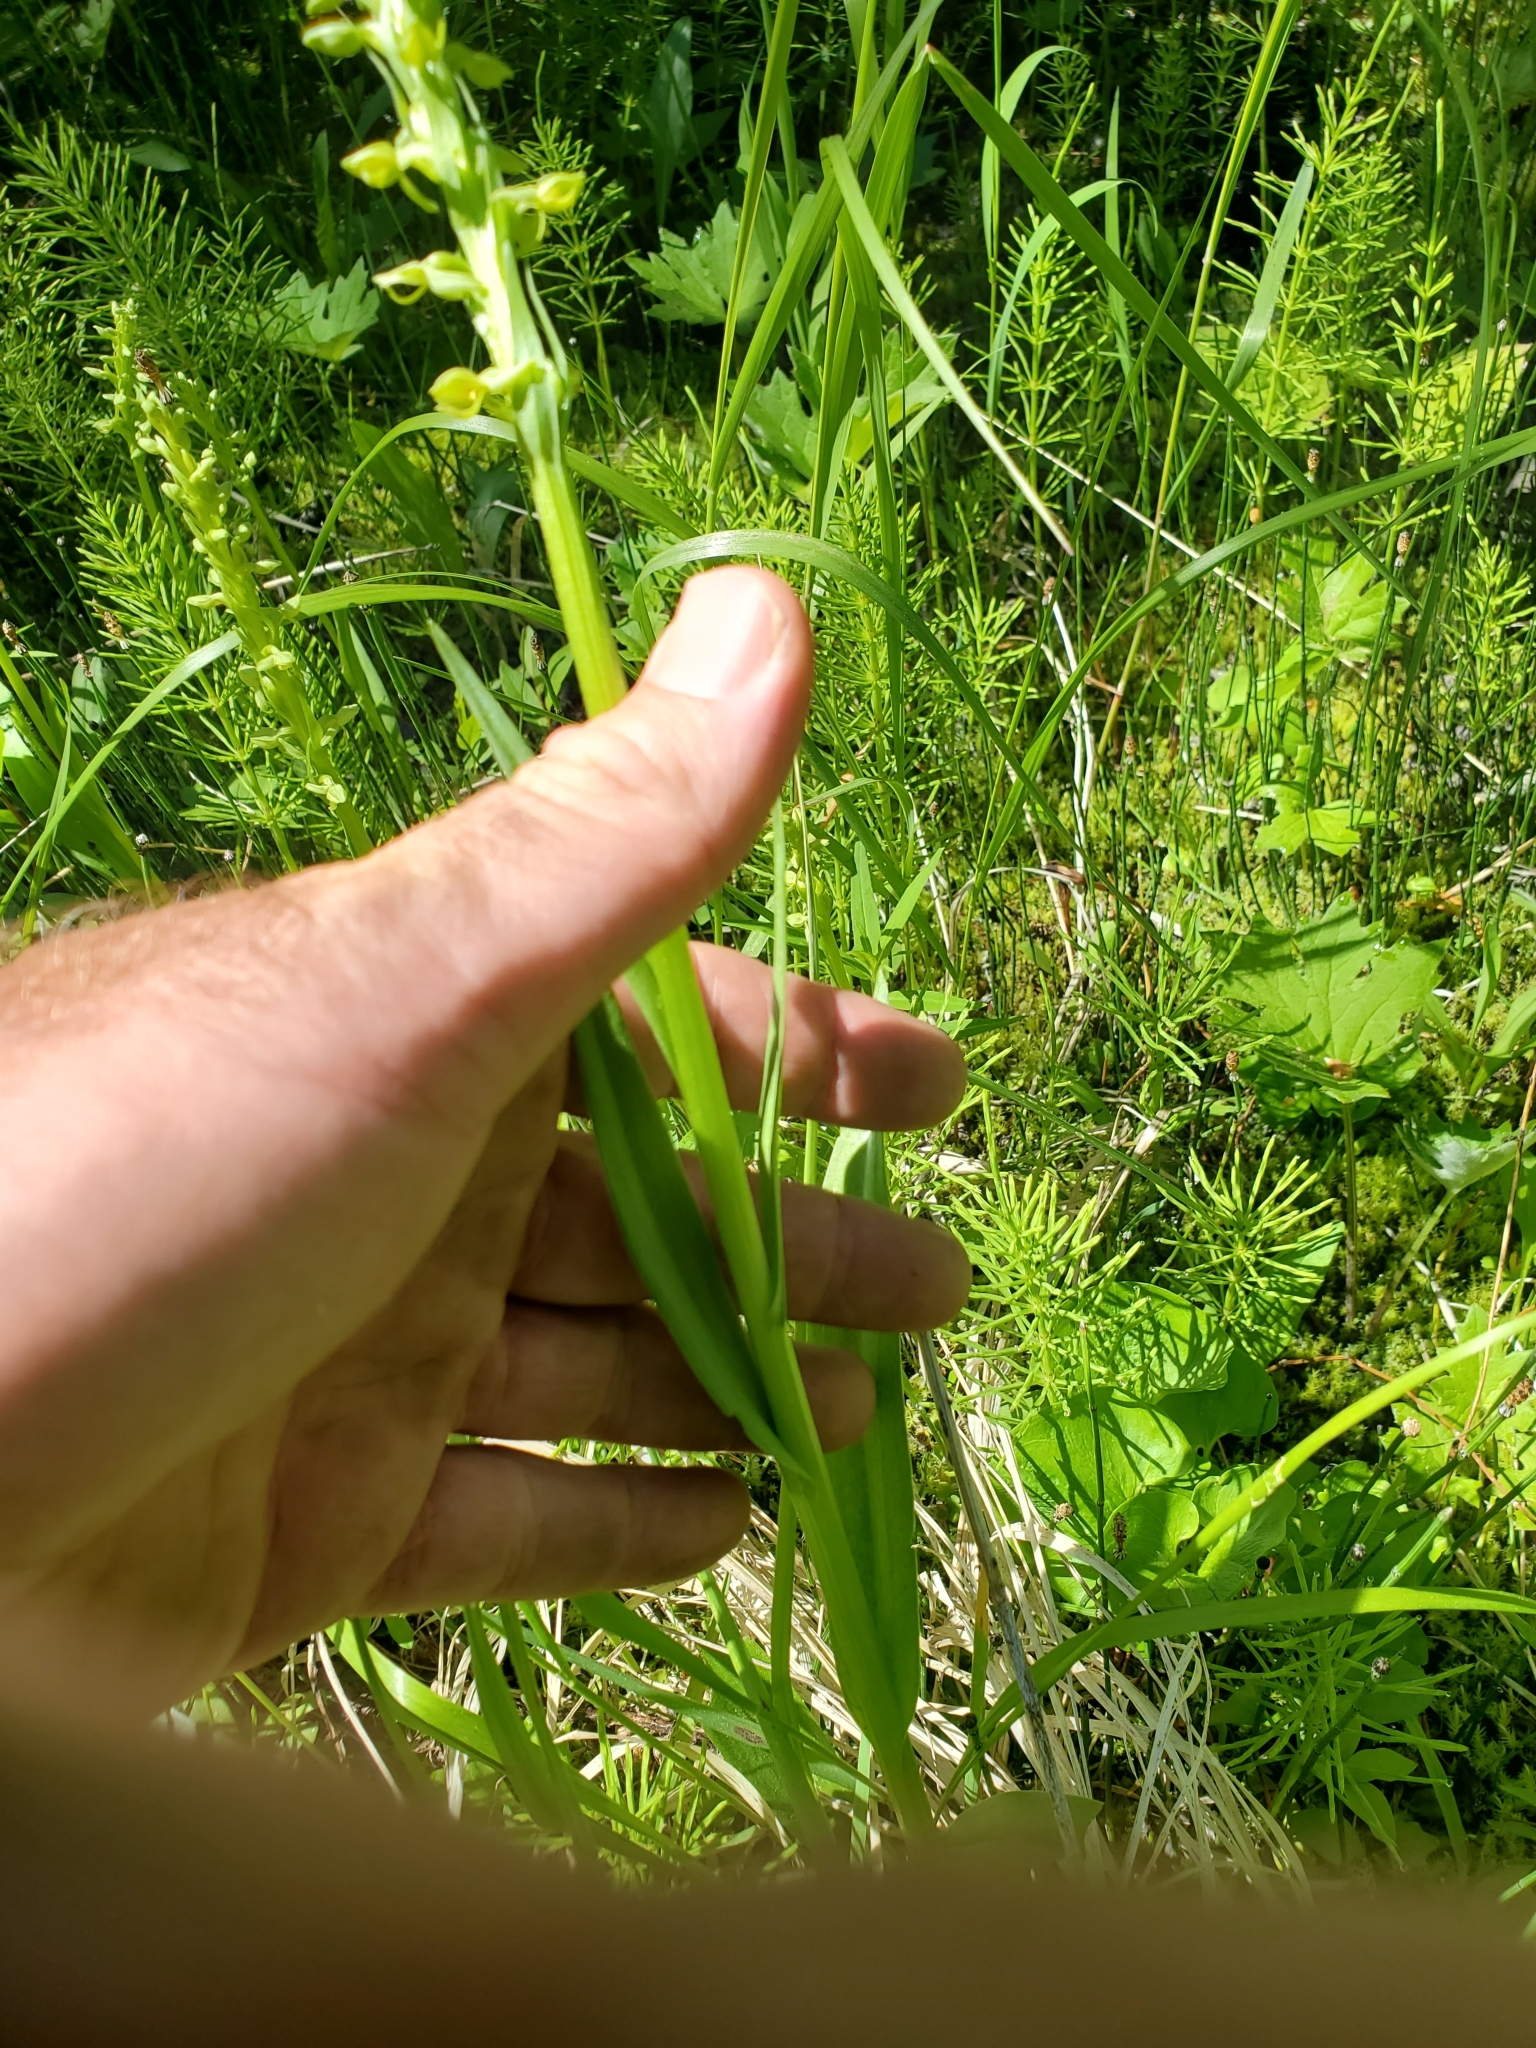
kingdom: Plantae
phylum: Tracheophyta
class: Liliopsida
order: Asparagales
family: Orchidaceae
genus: Platanthera
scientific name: Platanthera huronensis
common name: Fragrant green orchid
